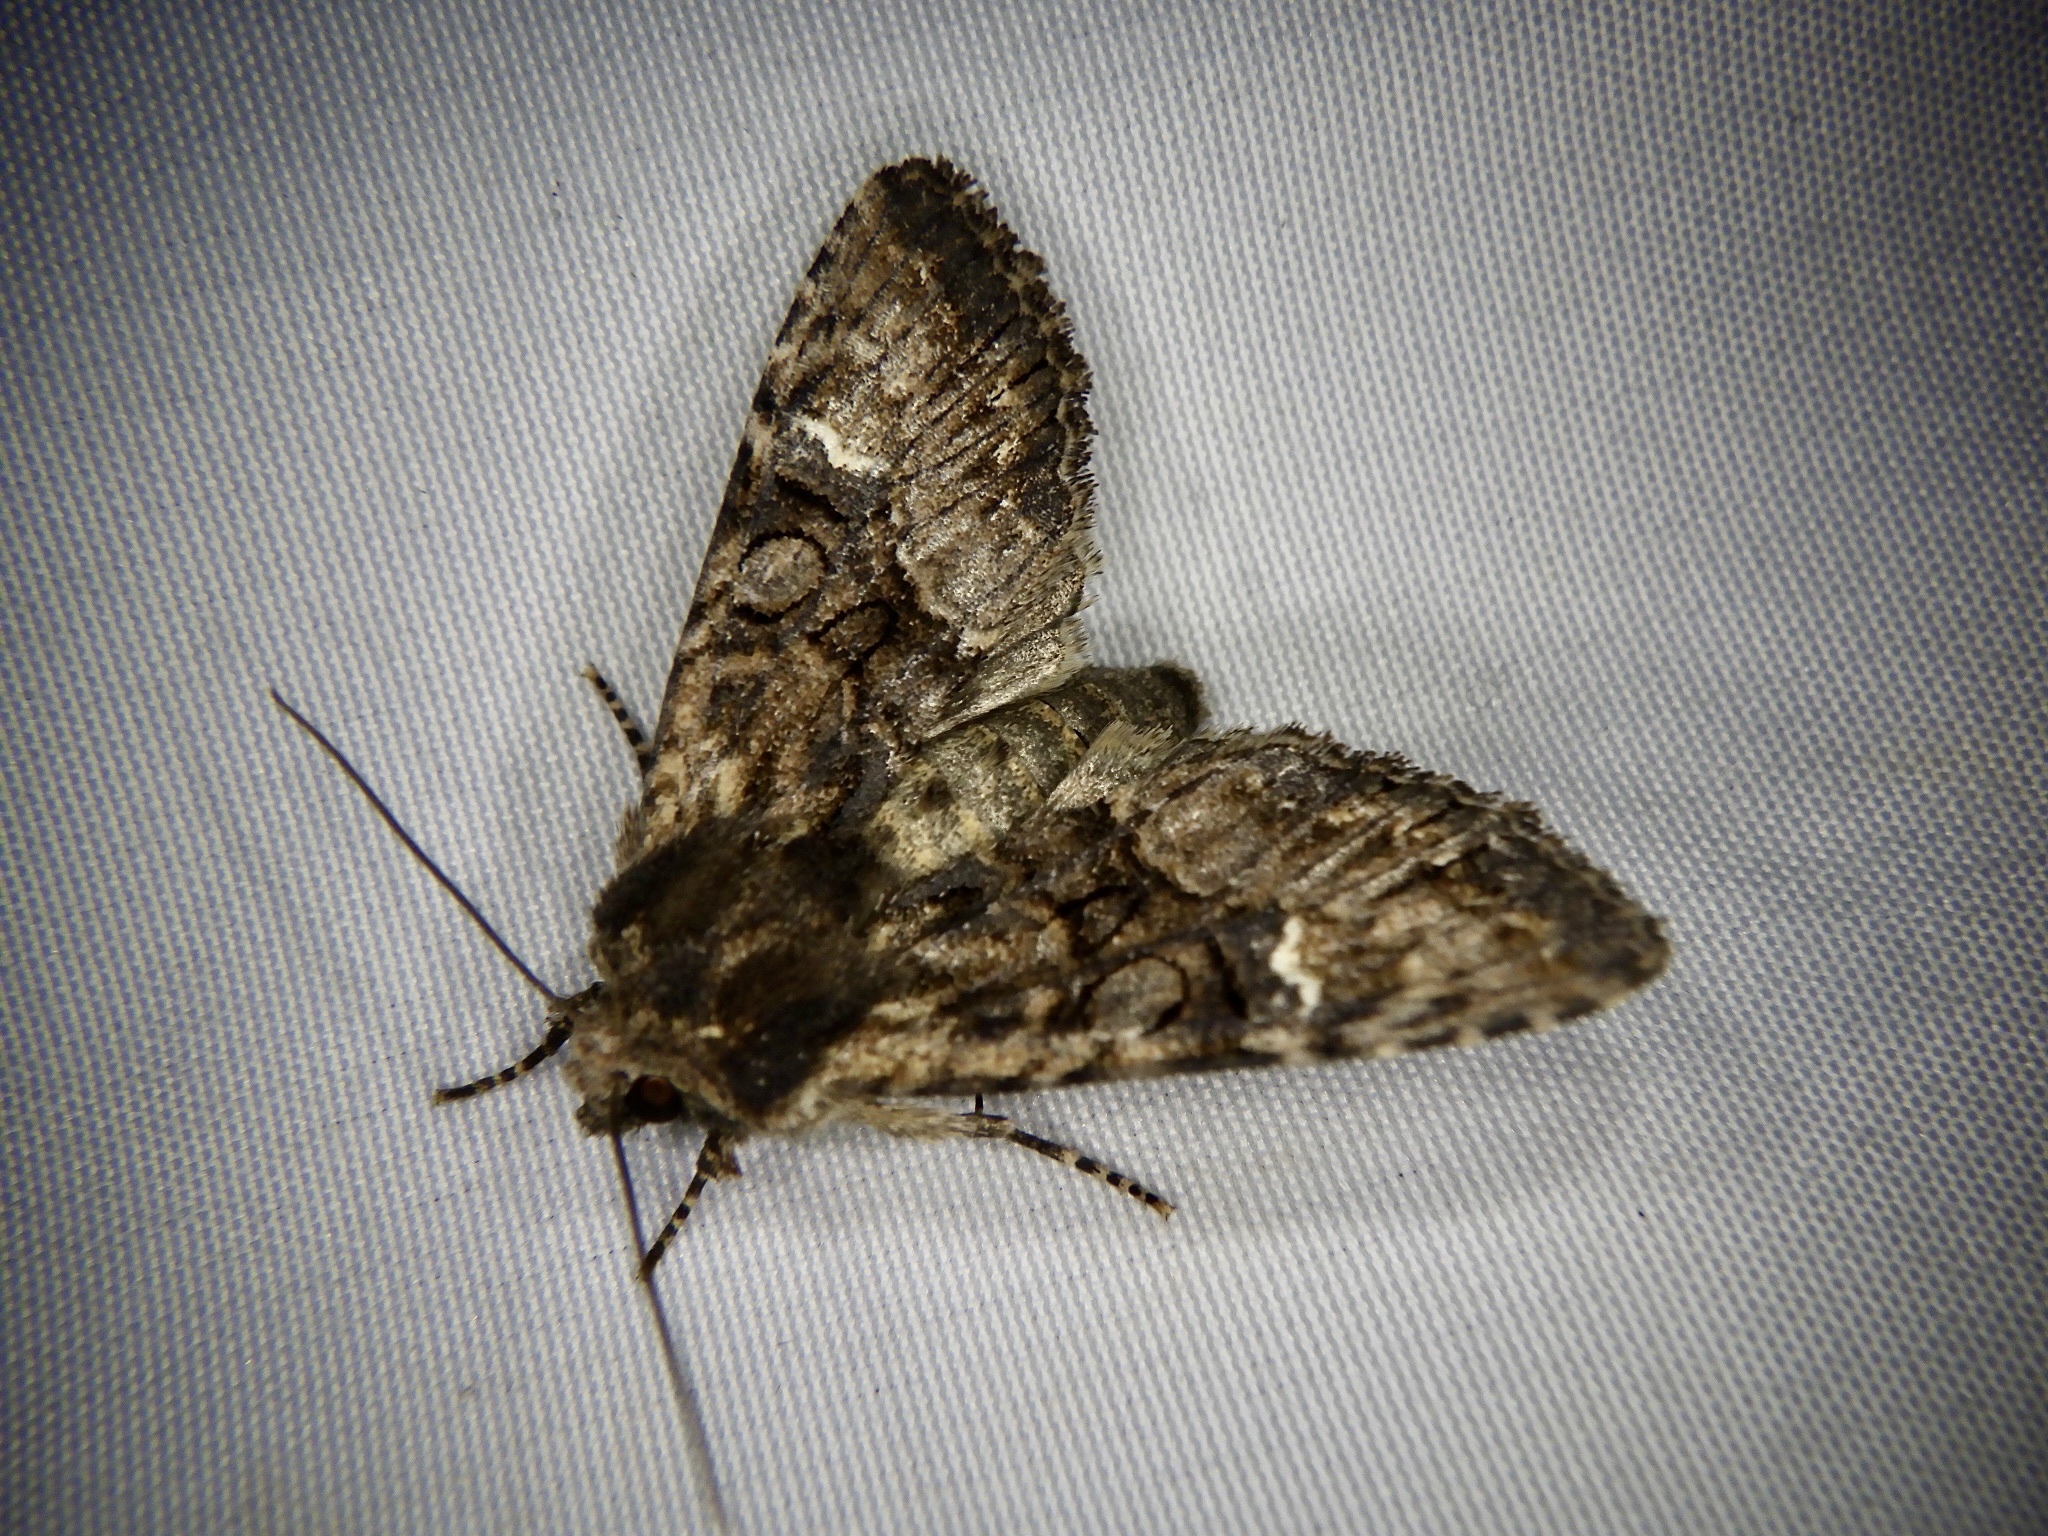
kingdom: Animalia
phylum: Arthropoda
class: Insecta
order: Lepidoptera
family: Noctuidae
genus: Nyctycia
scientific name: Nyctycia strigidisca
